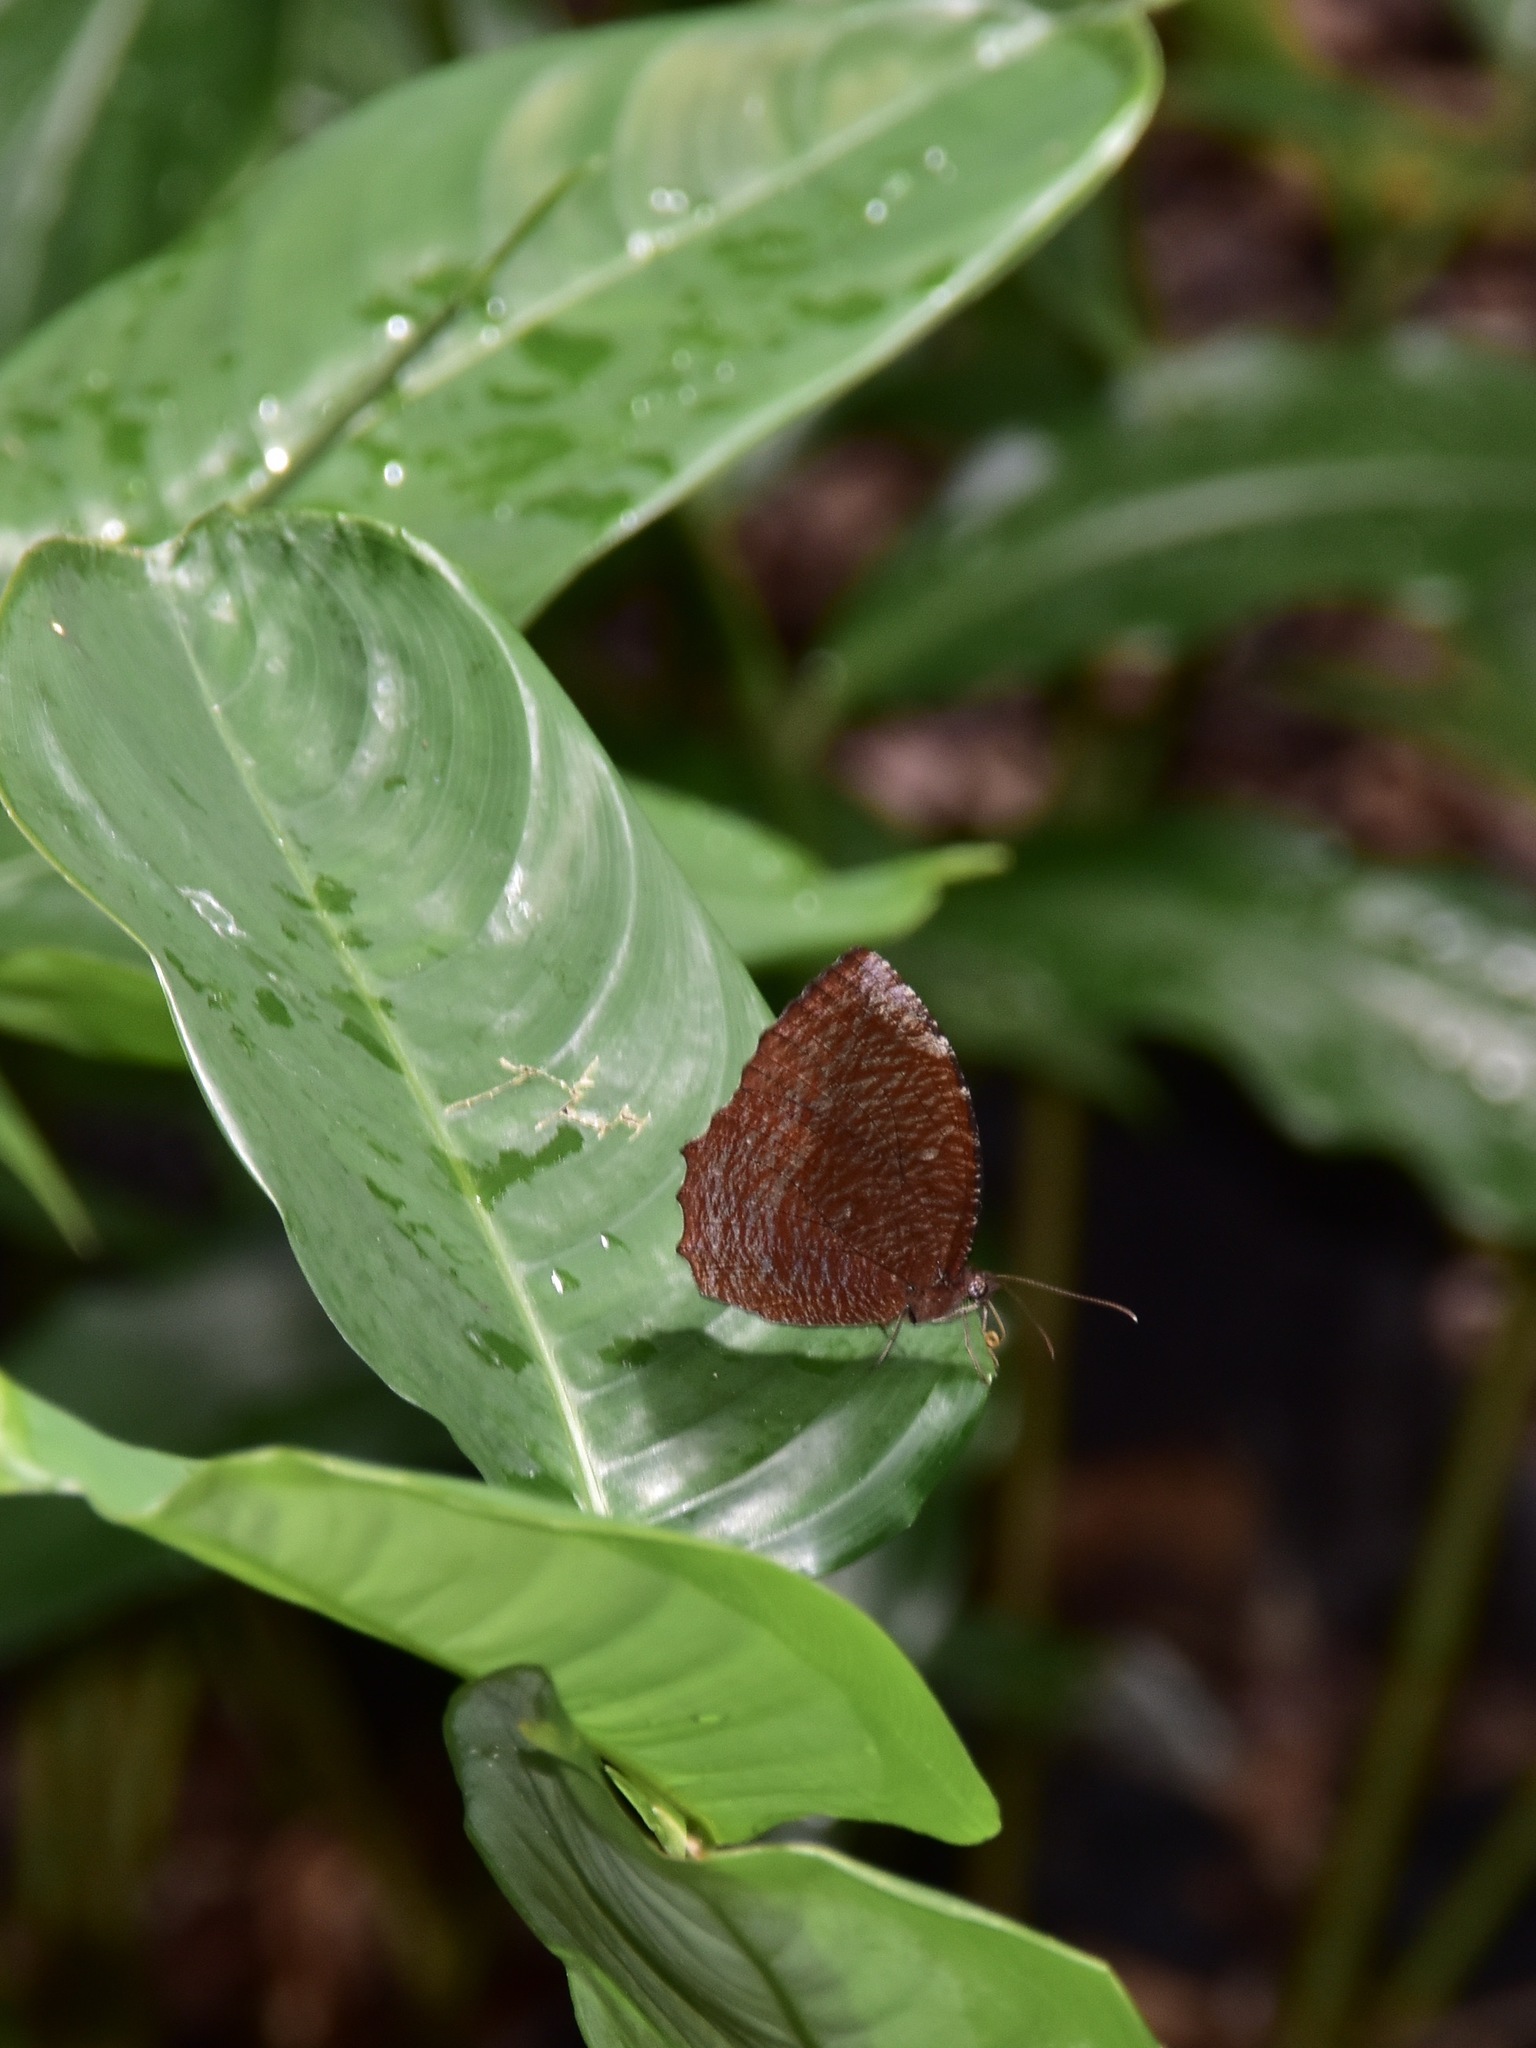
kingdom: Animalia
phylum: Arthropoda
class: Insecta
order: Lepidoptera
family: Nymphalidae
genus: Elymnias
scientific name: Elymnias hypermnestra
